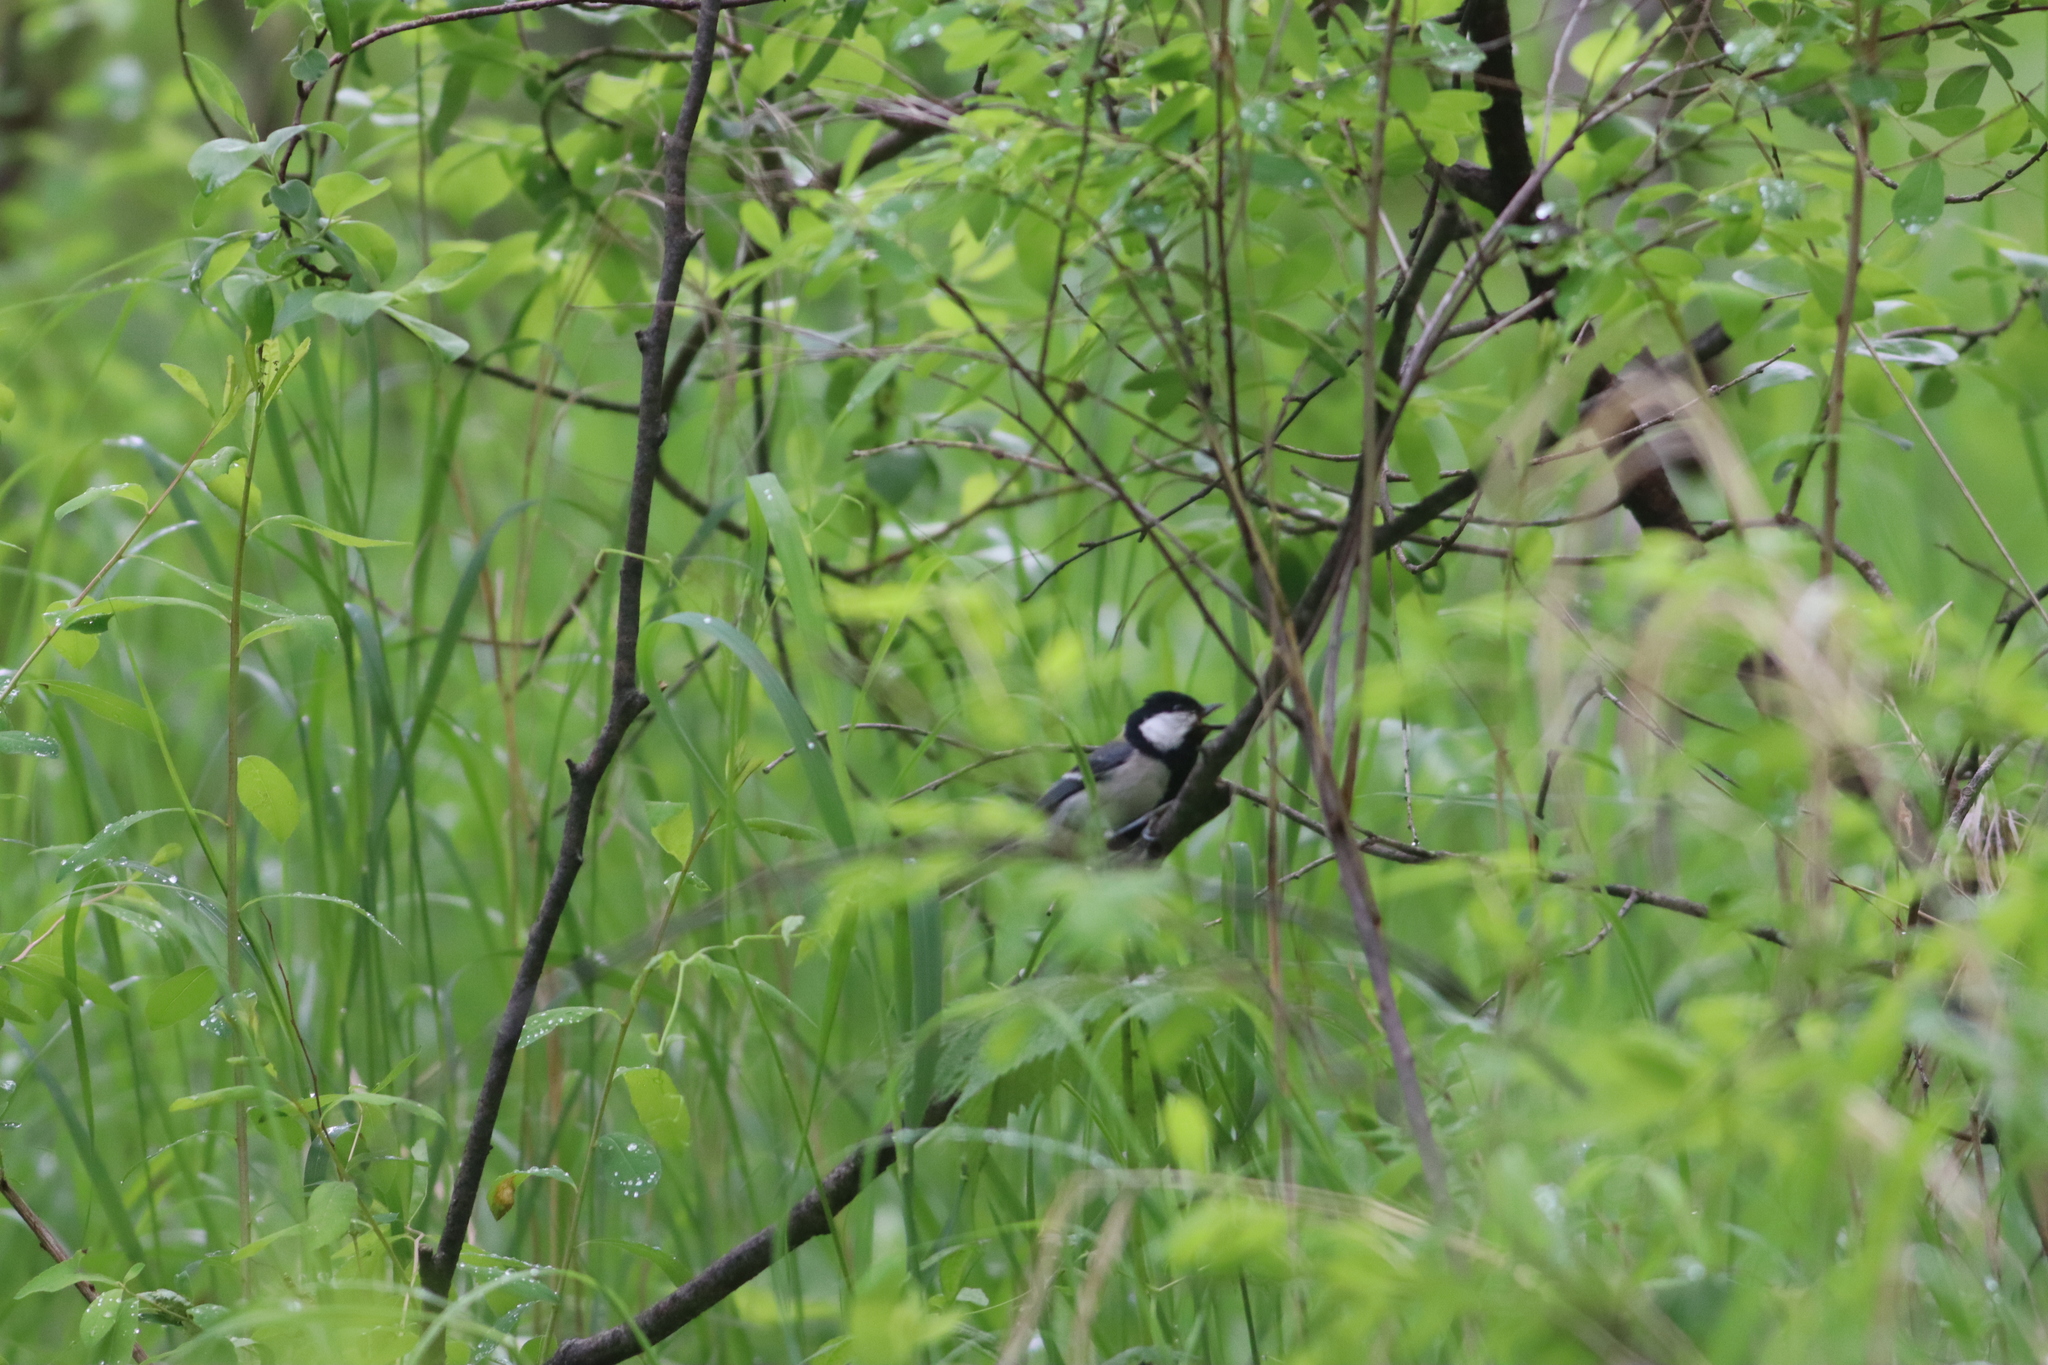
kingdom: Animalia
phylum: Chordata
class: Aves
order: Passeriformes
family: Paridae
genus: Parus
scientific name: Parus minor
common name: Japanese tit
